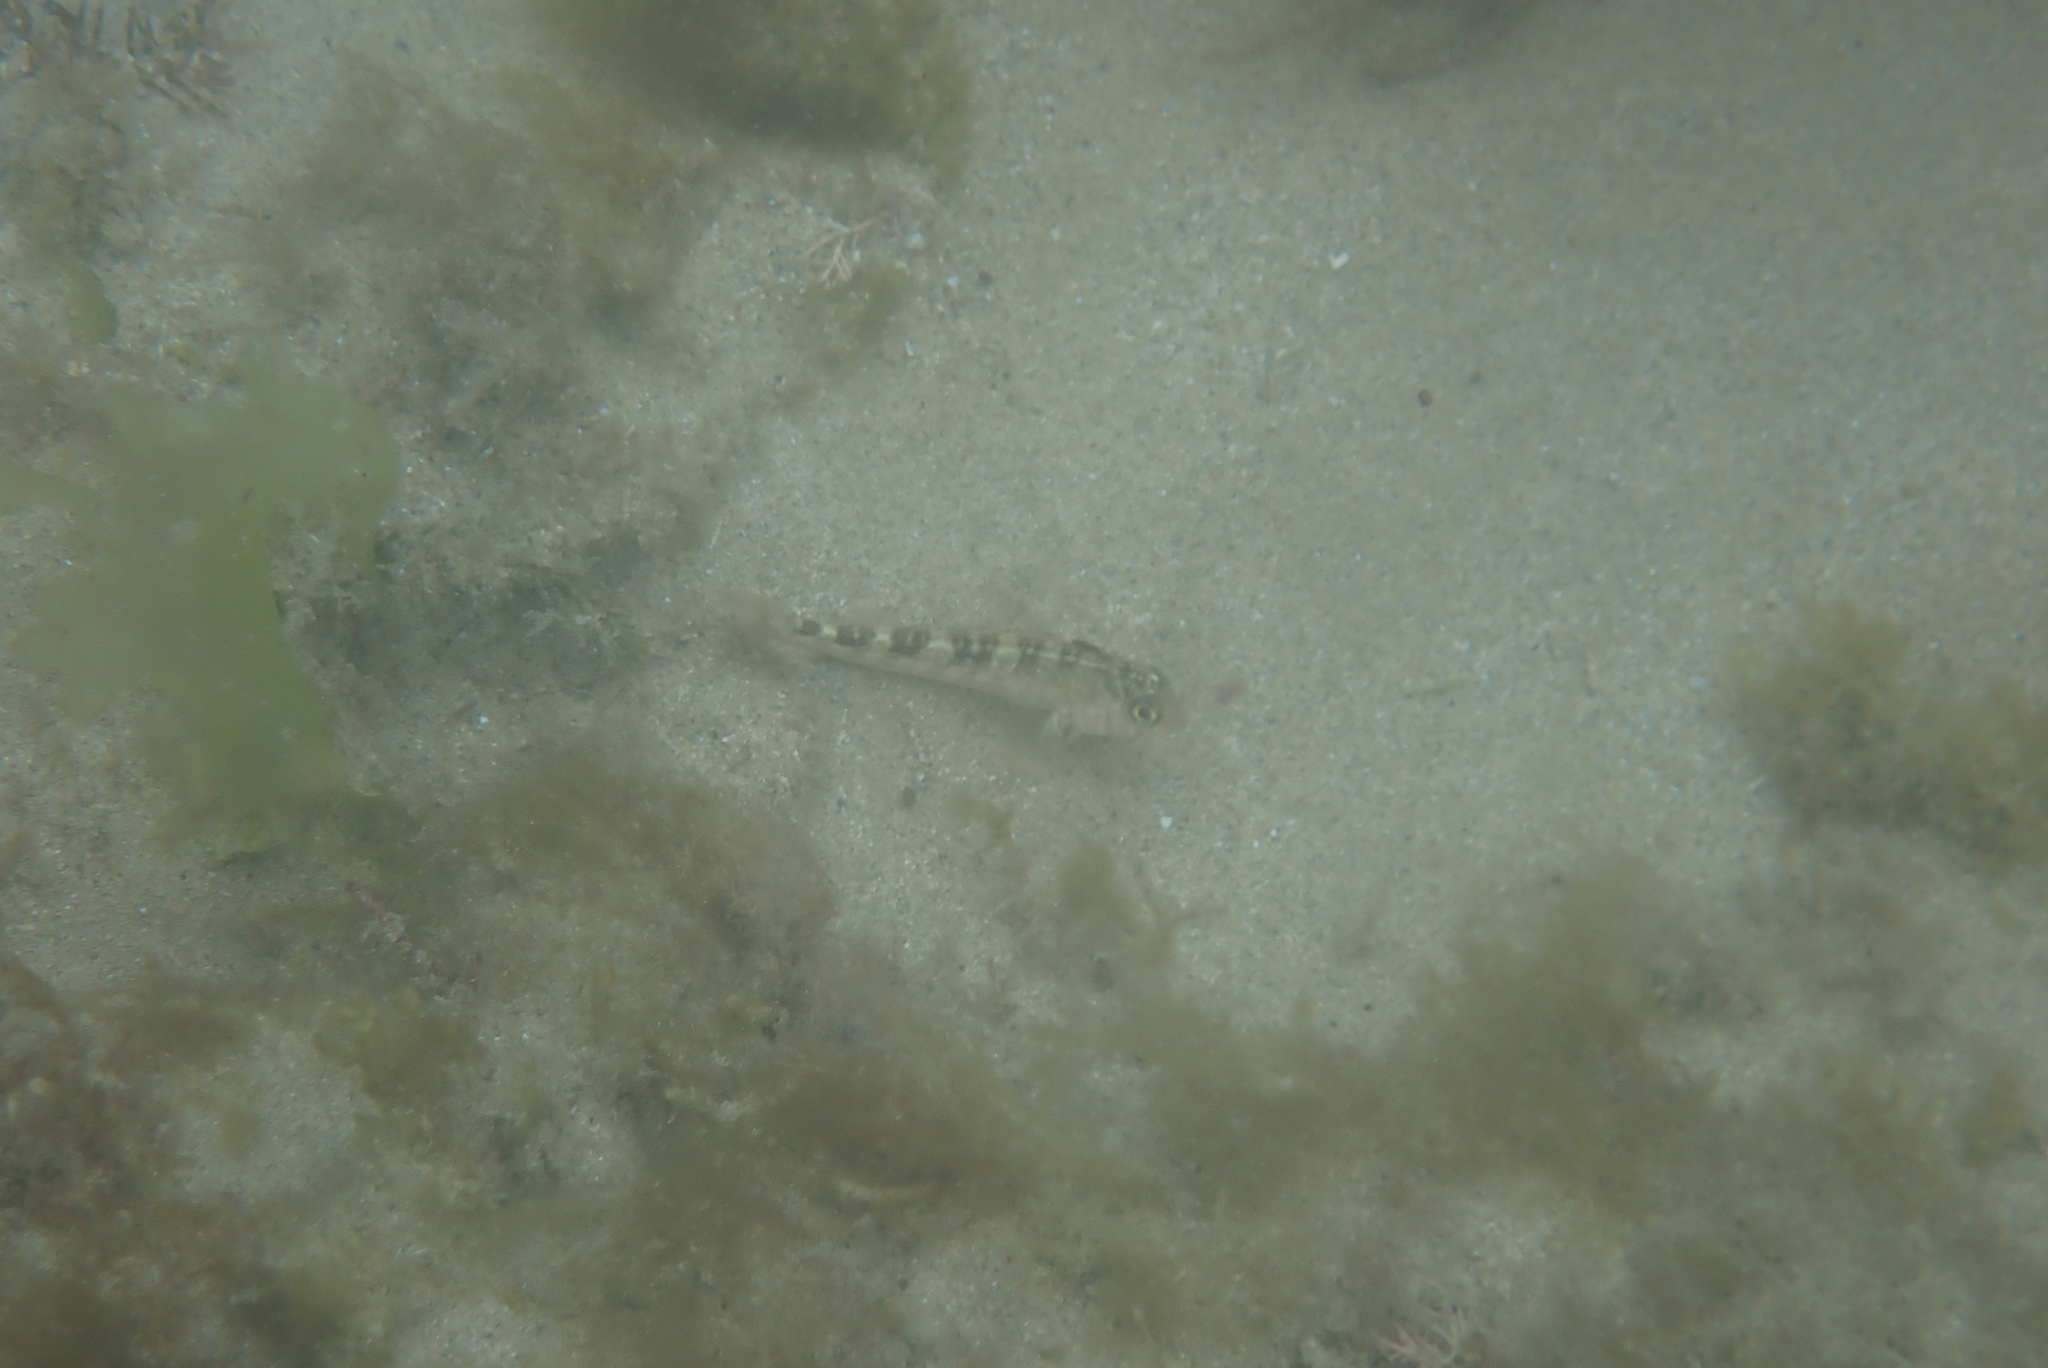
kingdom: Animalia
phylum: Chordata
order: Perciformes
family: Tripterygiidae
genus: Forsterygion
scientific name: Forsterygion varium
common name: Variable triplefin
